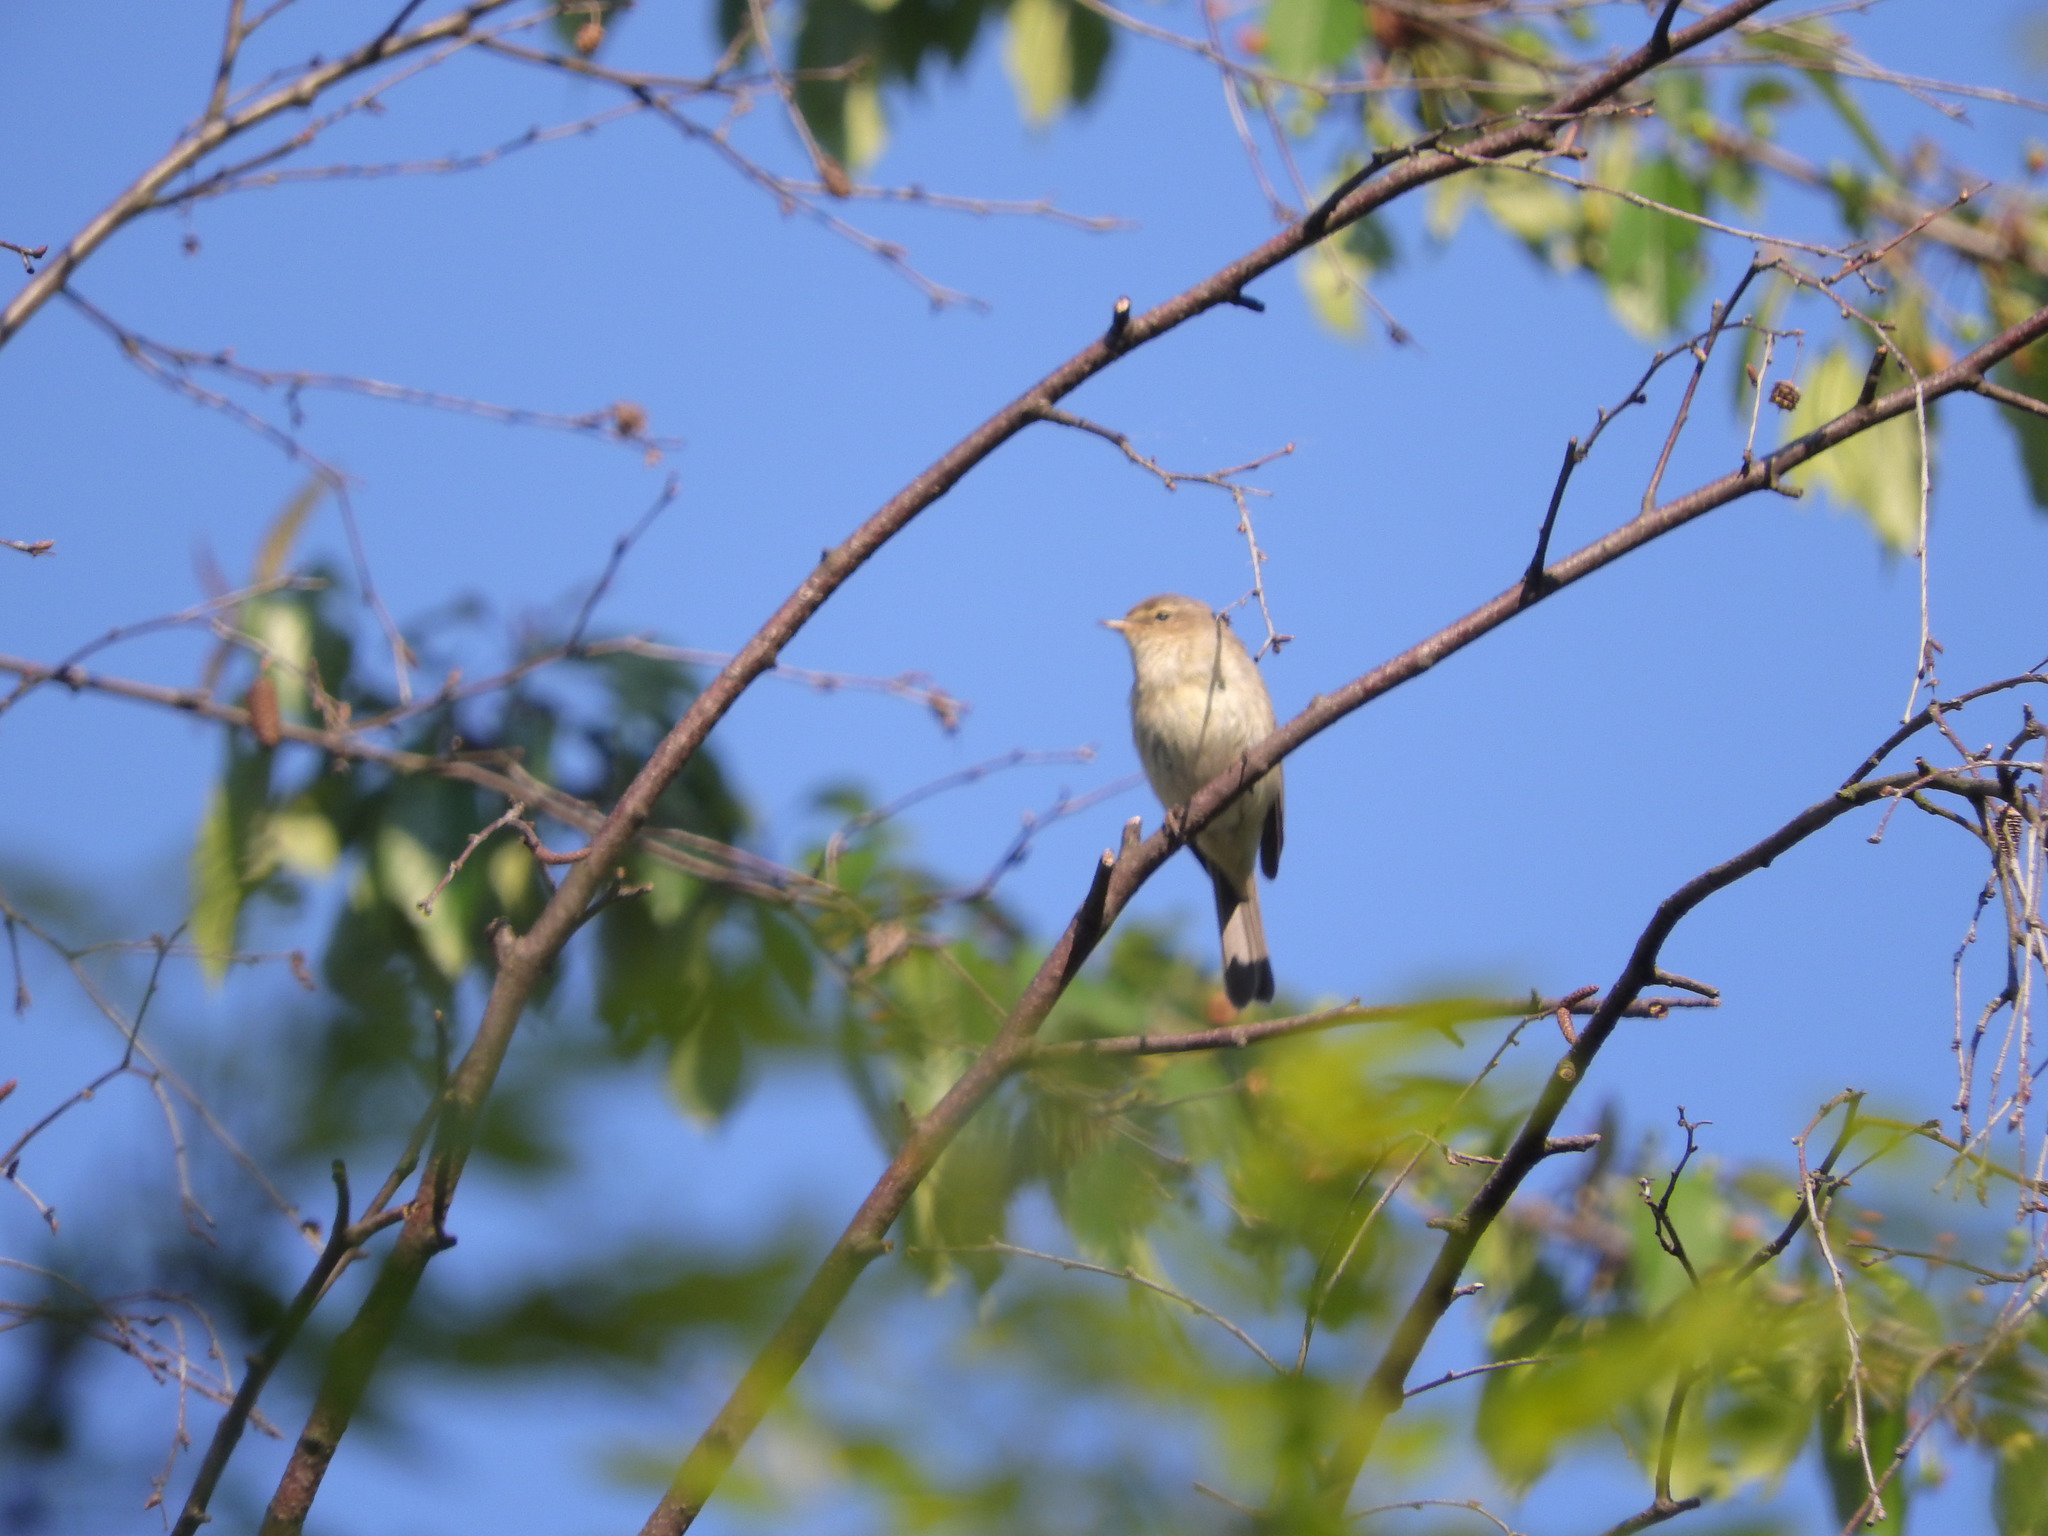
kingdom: Animalia
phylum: Chordata
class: Aves
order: Passeriformes
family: Phylloscopidae
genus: Phylloscopus
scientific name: Phylloscopus collybita
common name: Common chiffchaff
